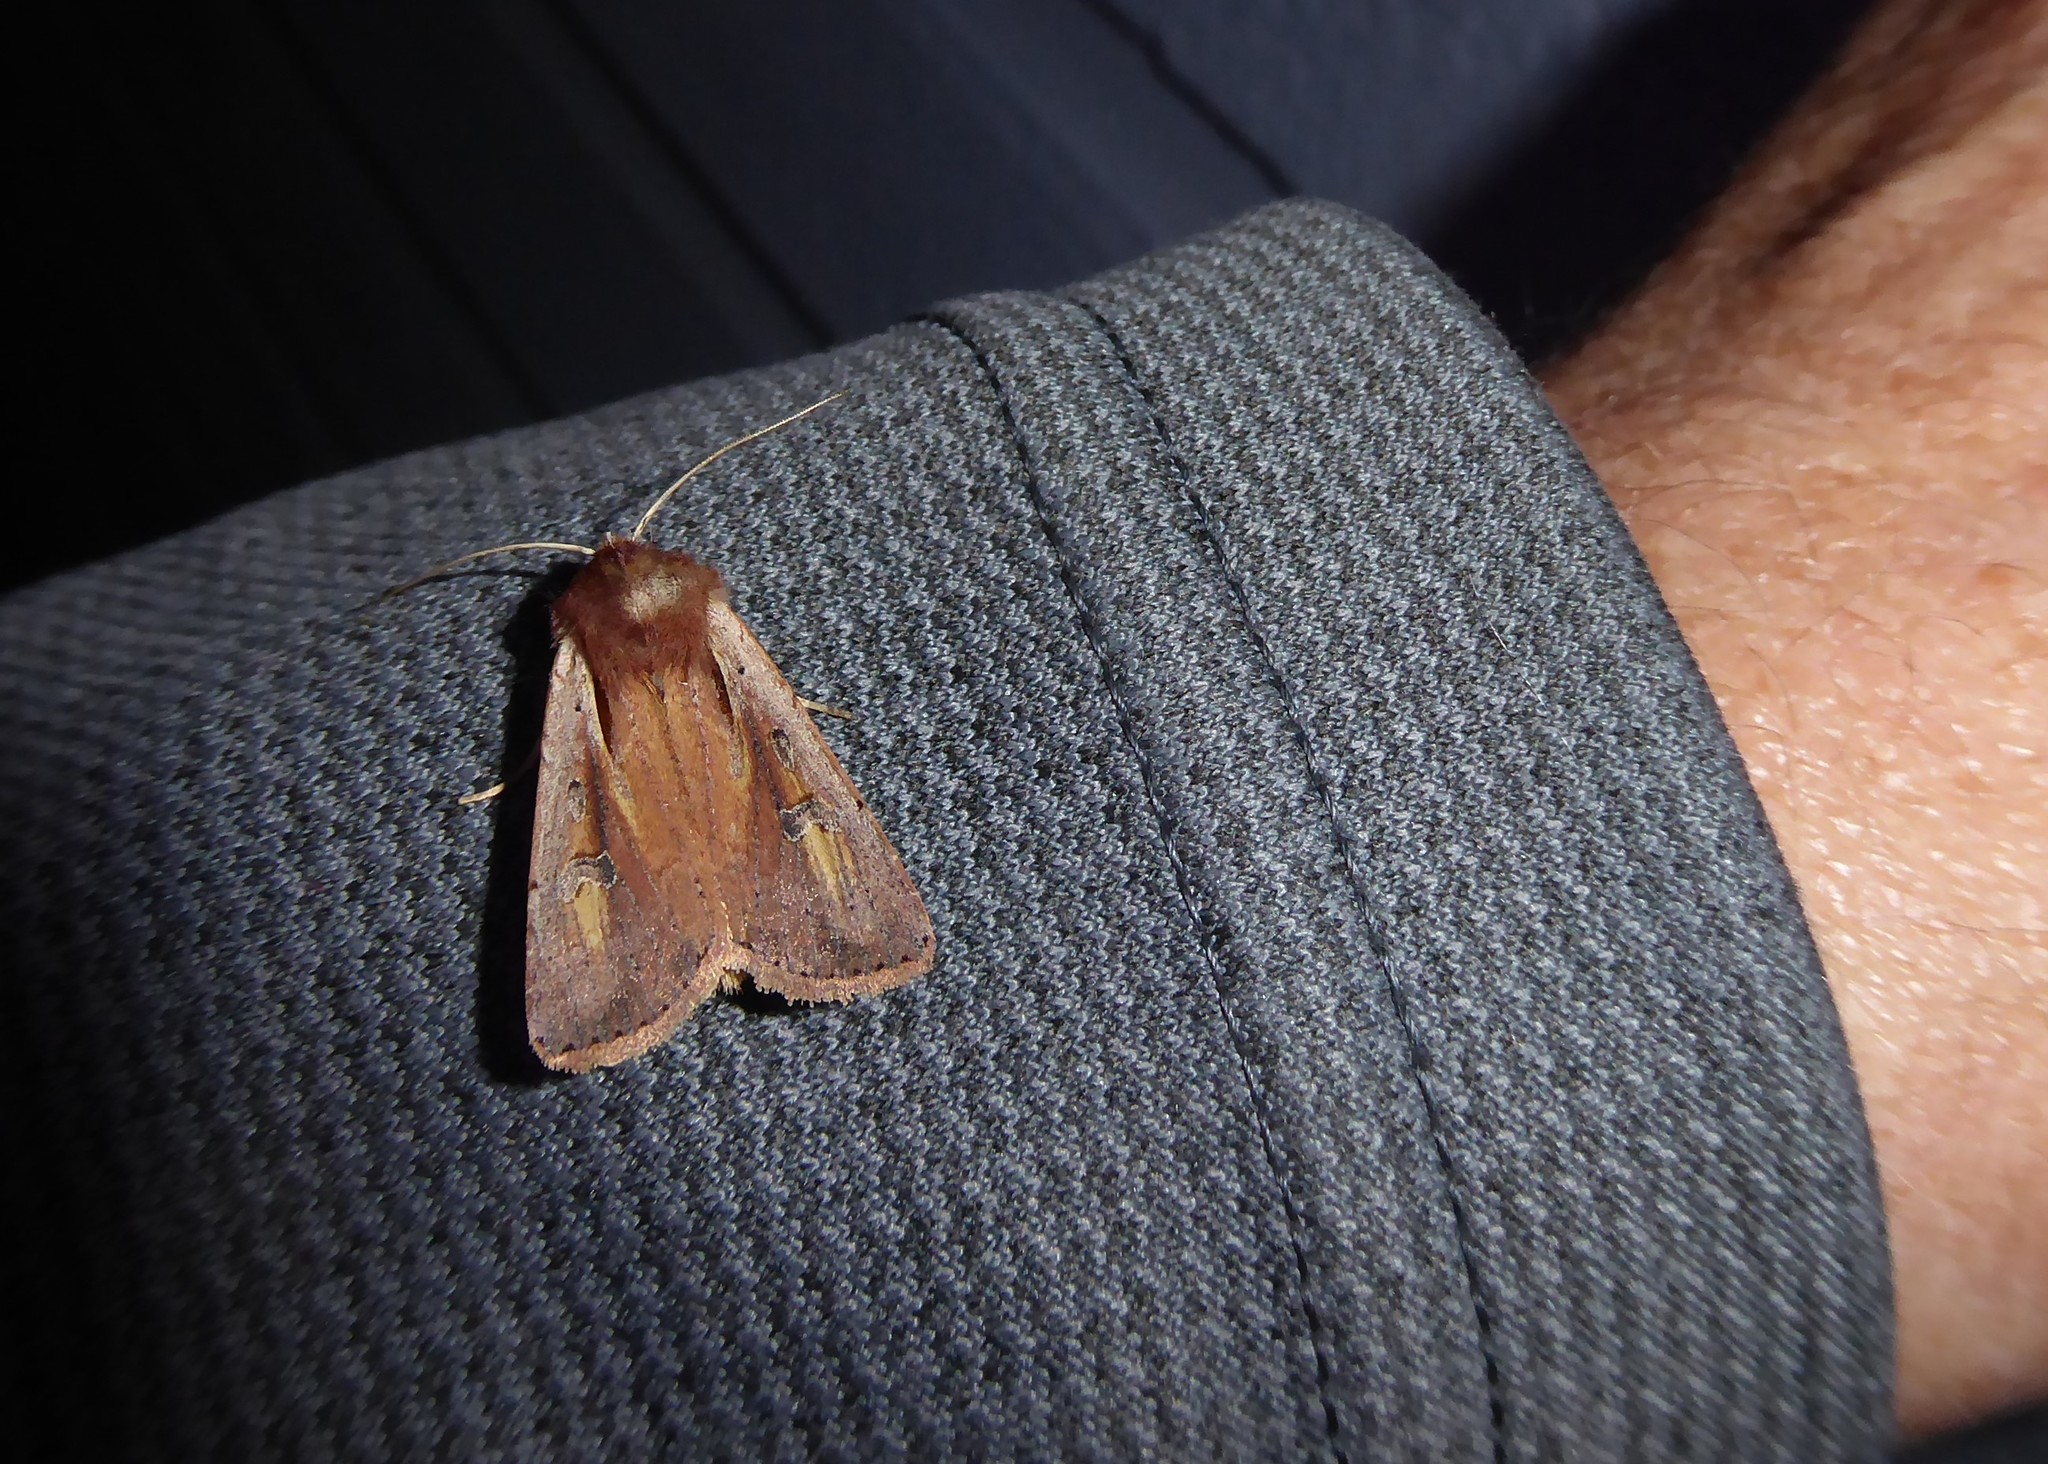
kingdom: Animalia
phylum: Arthropoda
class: Insecta
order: Lepidoptera
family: Noctuidae
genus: Ichneutica
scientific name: Ichneutica atristriga
